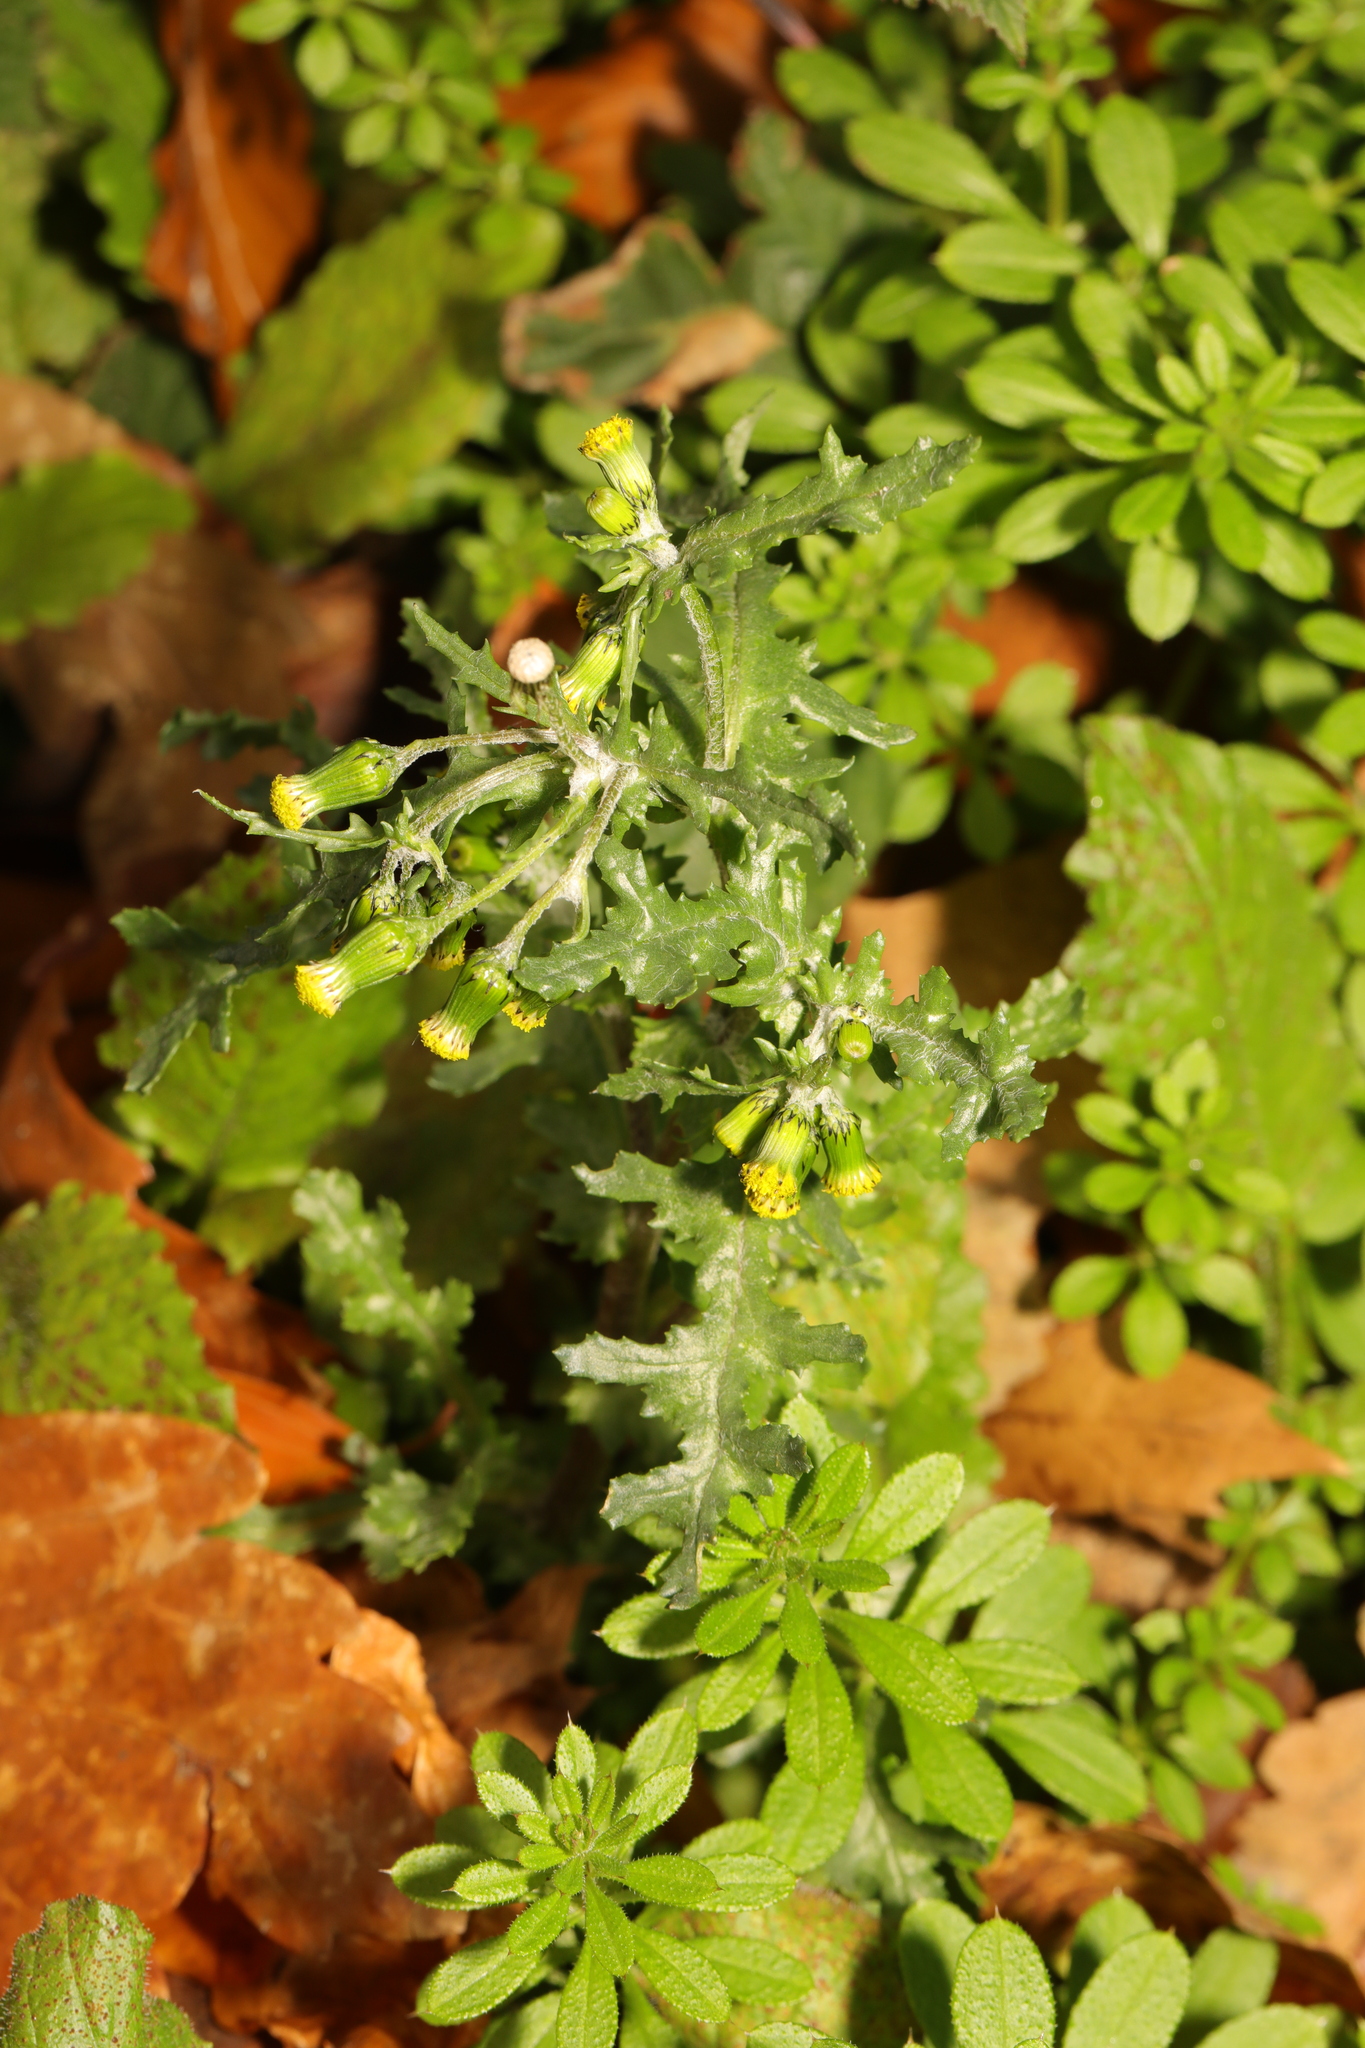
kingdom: Plantae
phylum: Tracheophyta
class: Magnoliopsida
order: Asterales
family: Asteraceae
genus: Senecio
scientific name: Senecio vulgaris
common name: Old-man-in-the-spring
